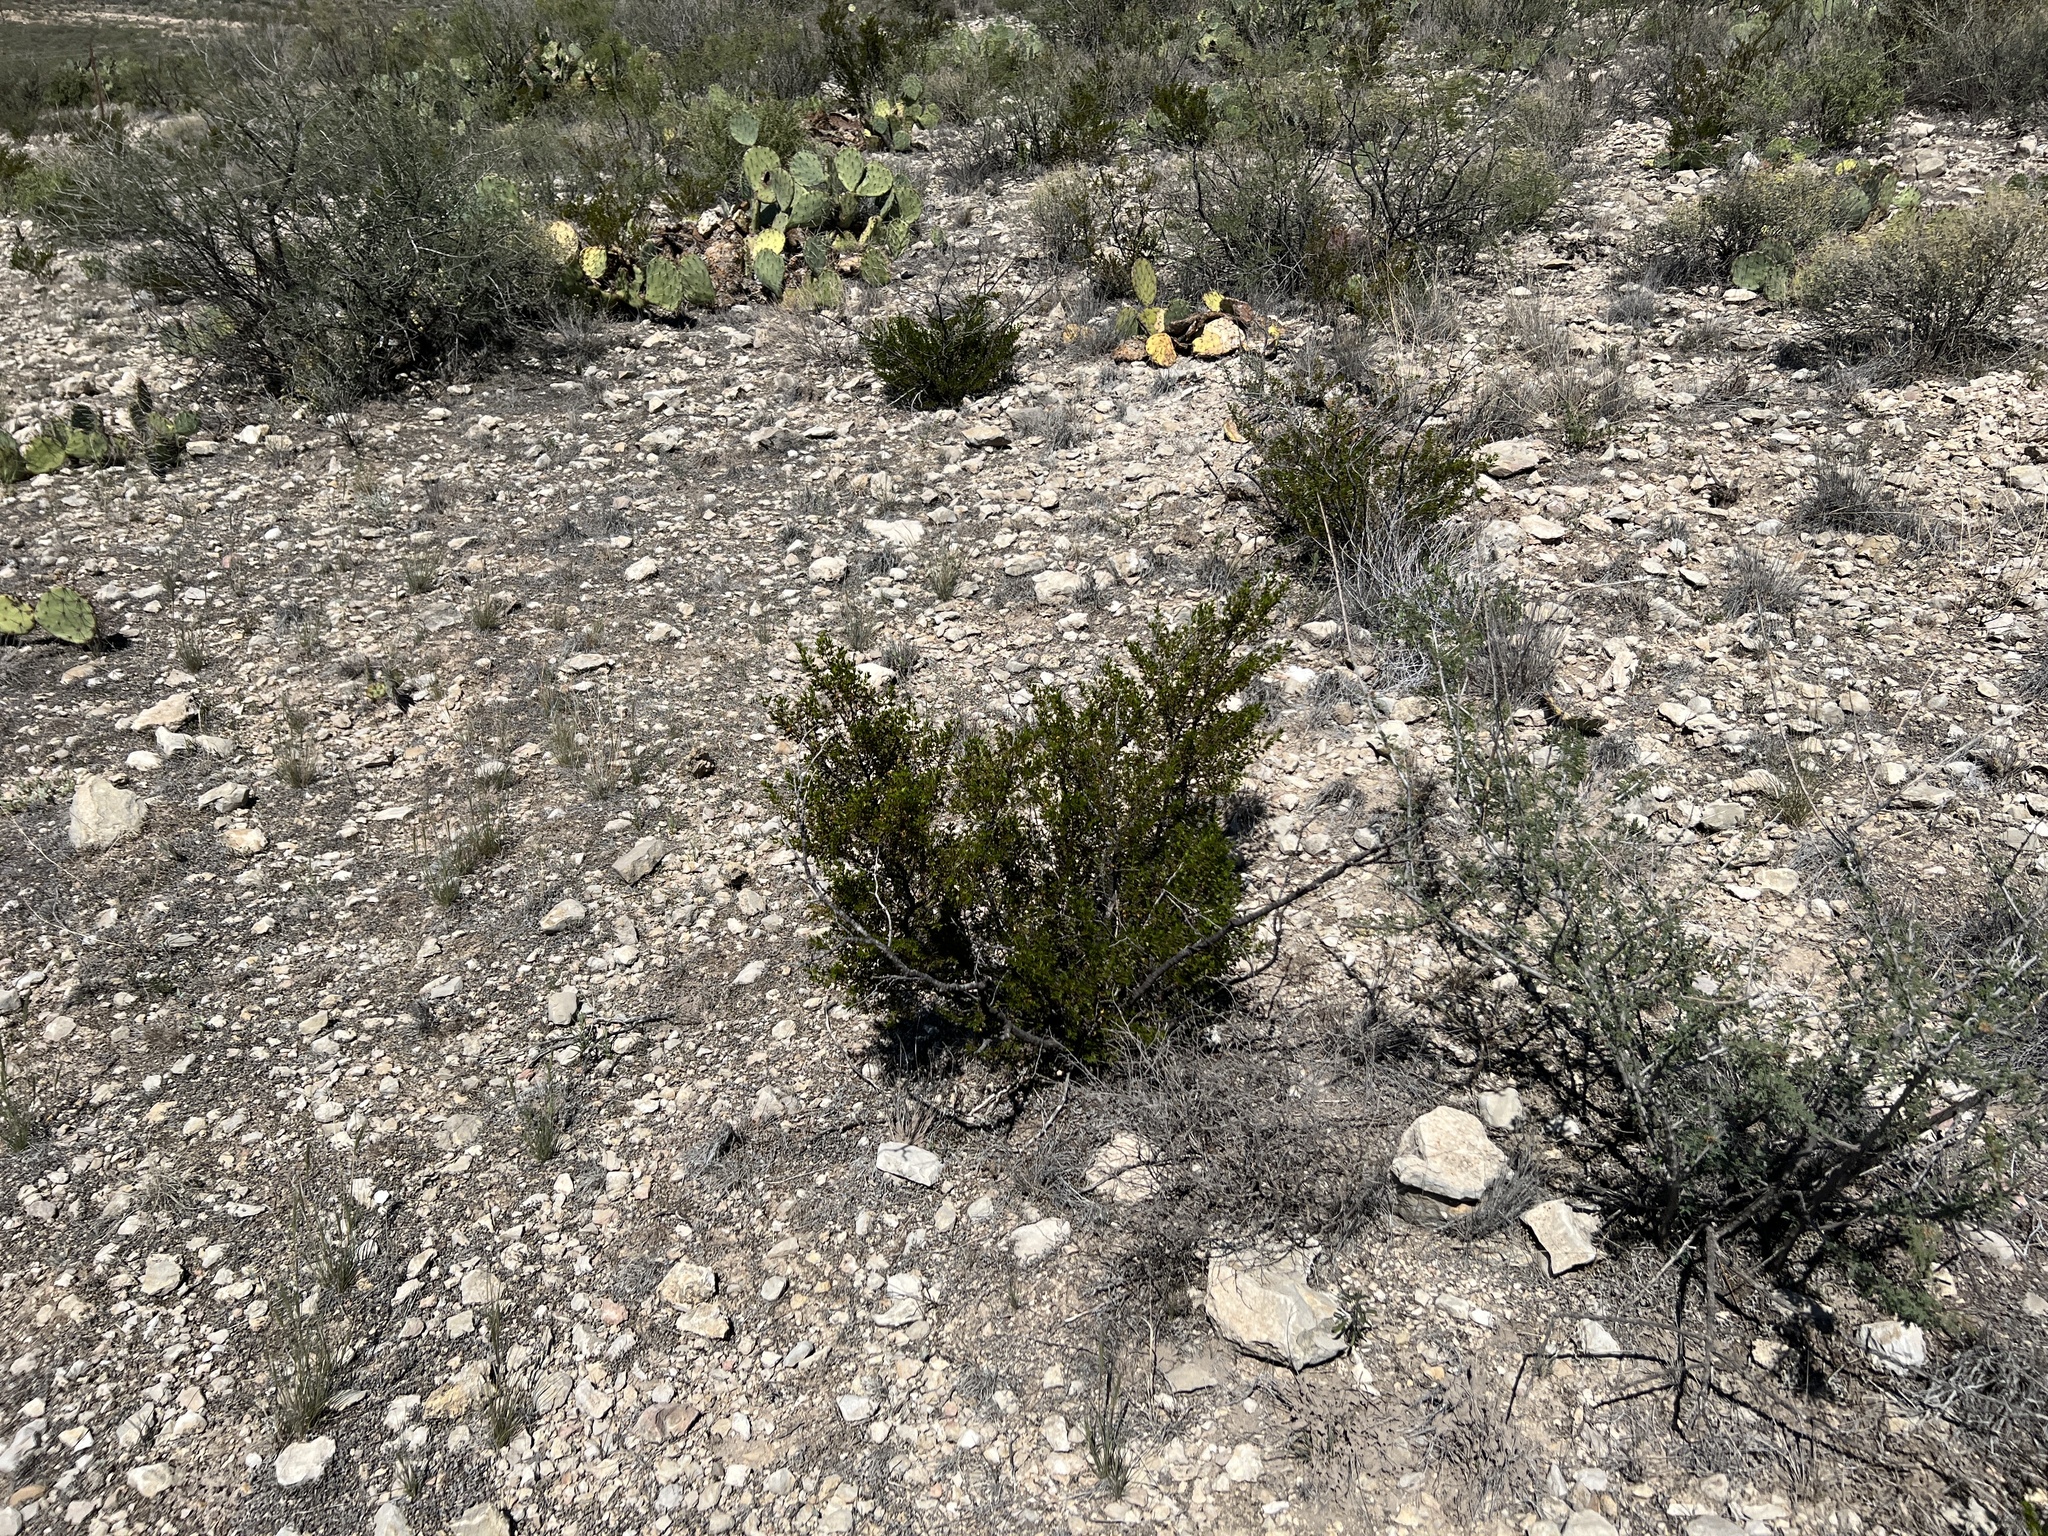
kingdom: Plantae
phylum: Tracheophyta
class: Magnoliopsida
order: Zygophyllales
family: Zygophyllaceae
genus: Larrea
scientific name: Larrea tridentata
